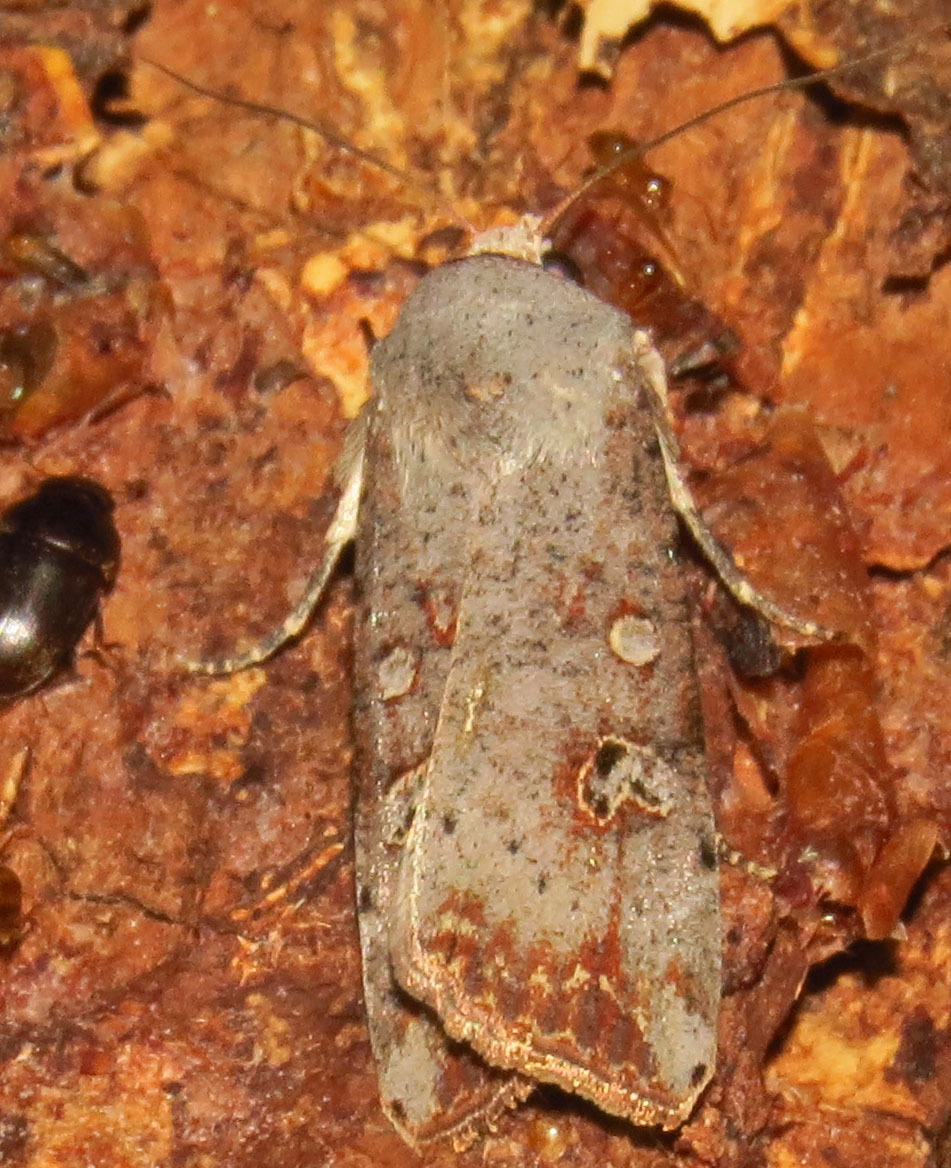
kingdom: Animalia
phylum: Arthropoda
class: Insecta
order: Lepidoptera
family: Noctuidae
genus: Anicla
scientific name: Anicla infecta
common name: Green cutworm
